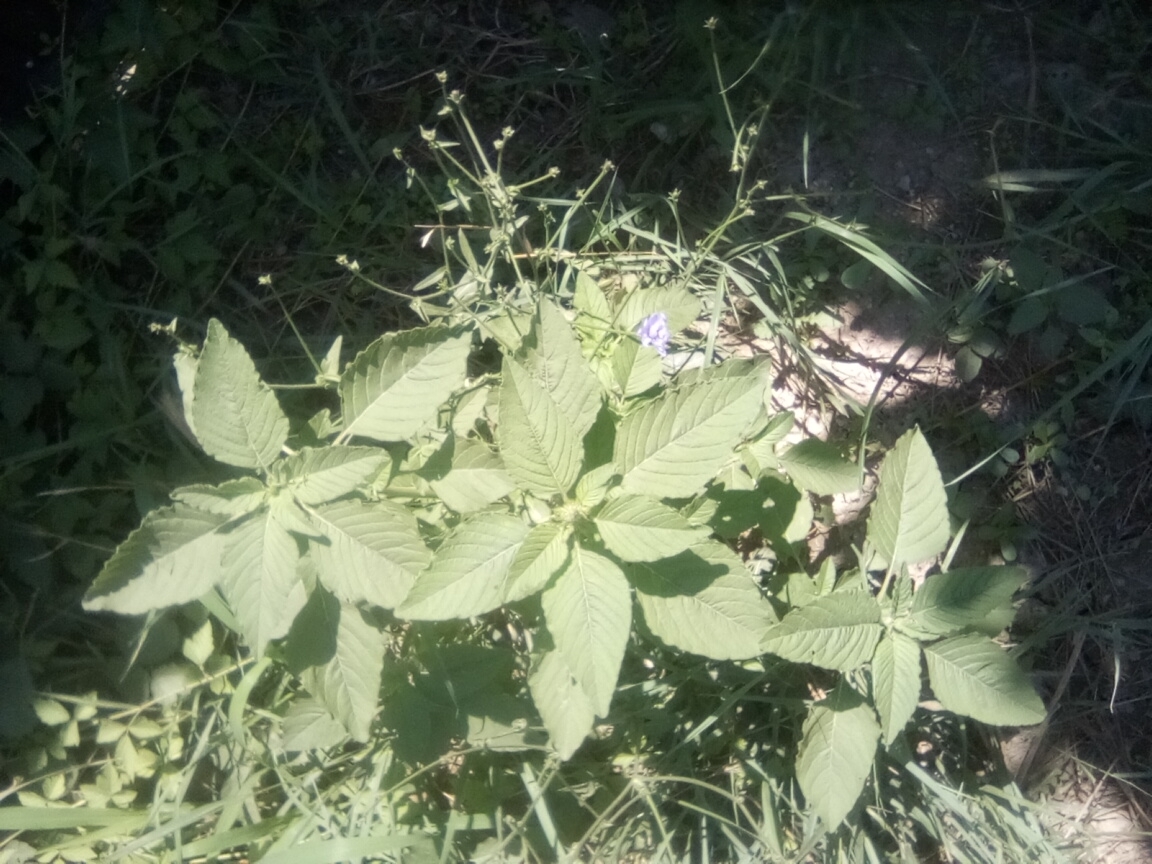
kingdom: Plantae
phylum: Tracheophyta
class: Magnoliopsida
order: Caryophyllales
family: Amaranthaceae
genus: Amaranthus
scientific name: Amaranthus retroflexus
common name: Redroot amaranth
